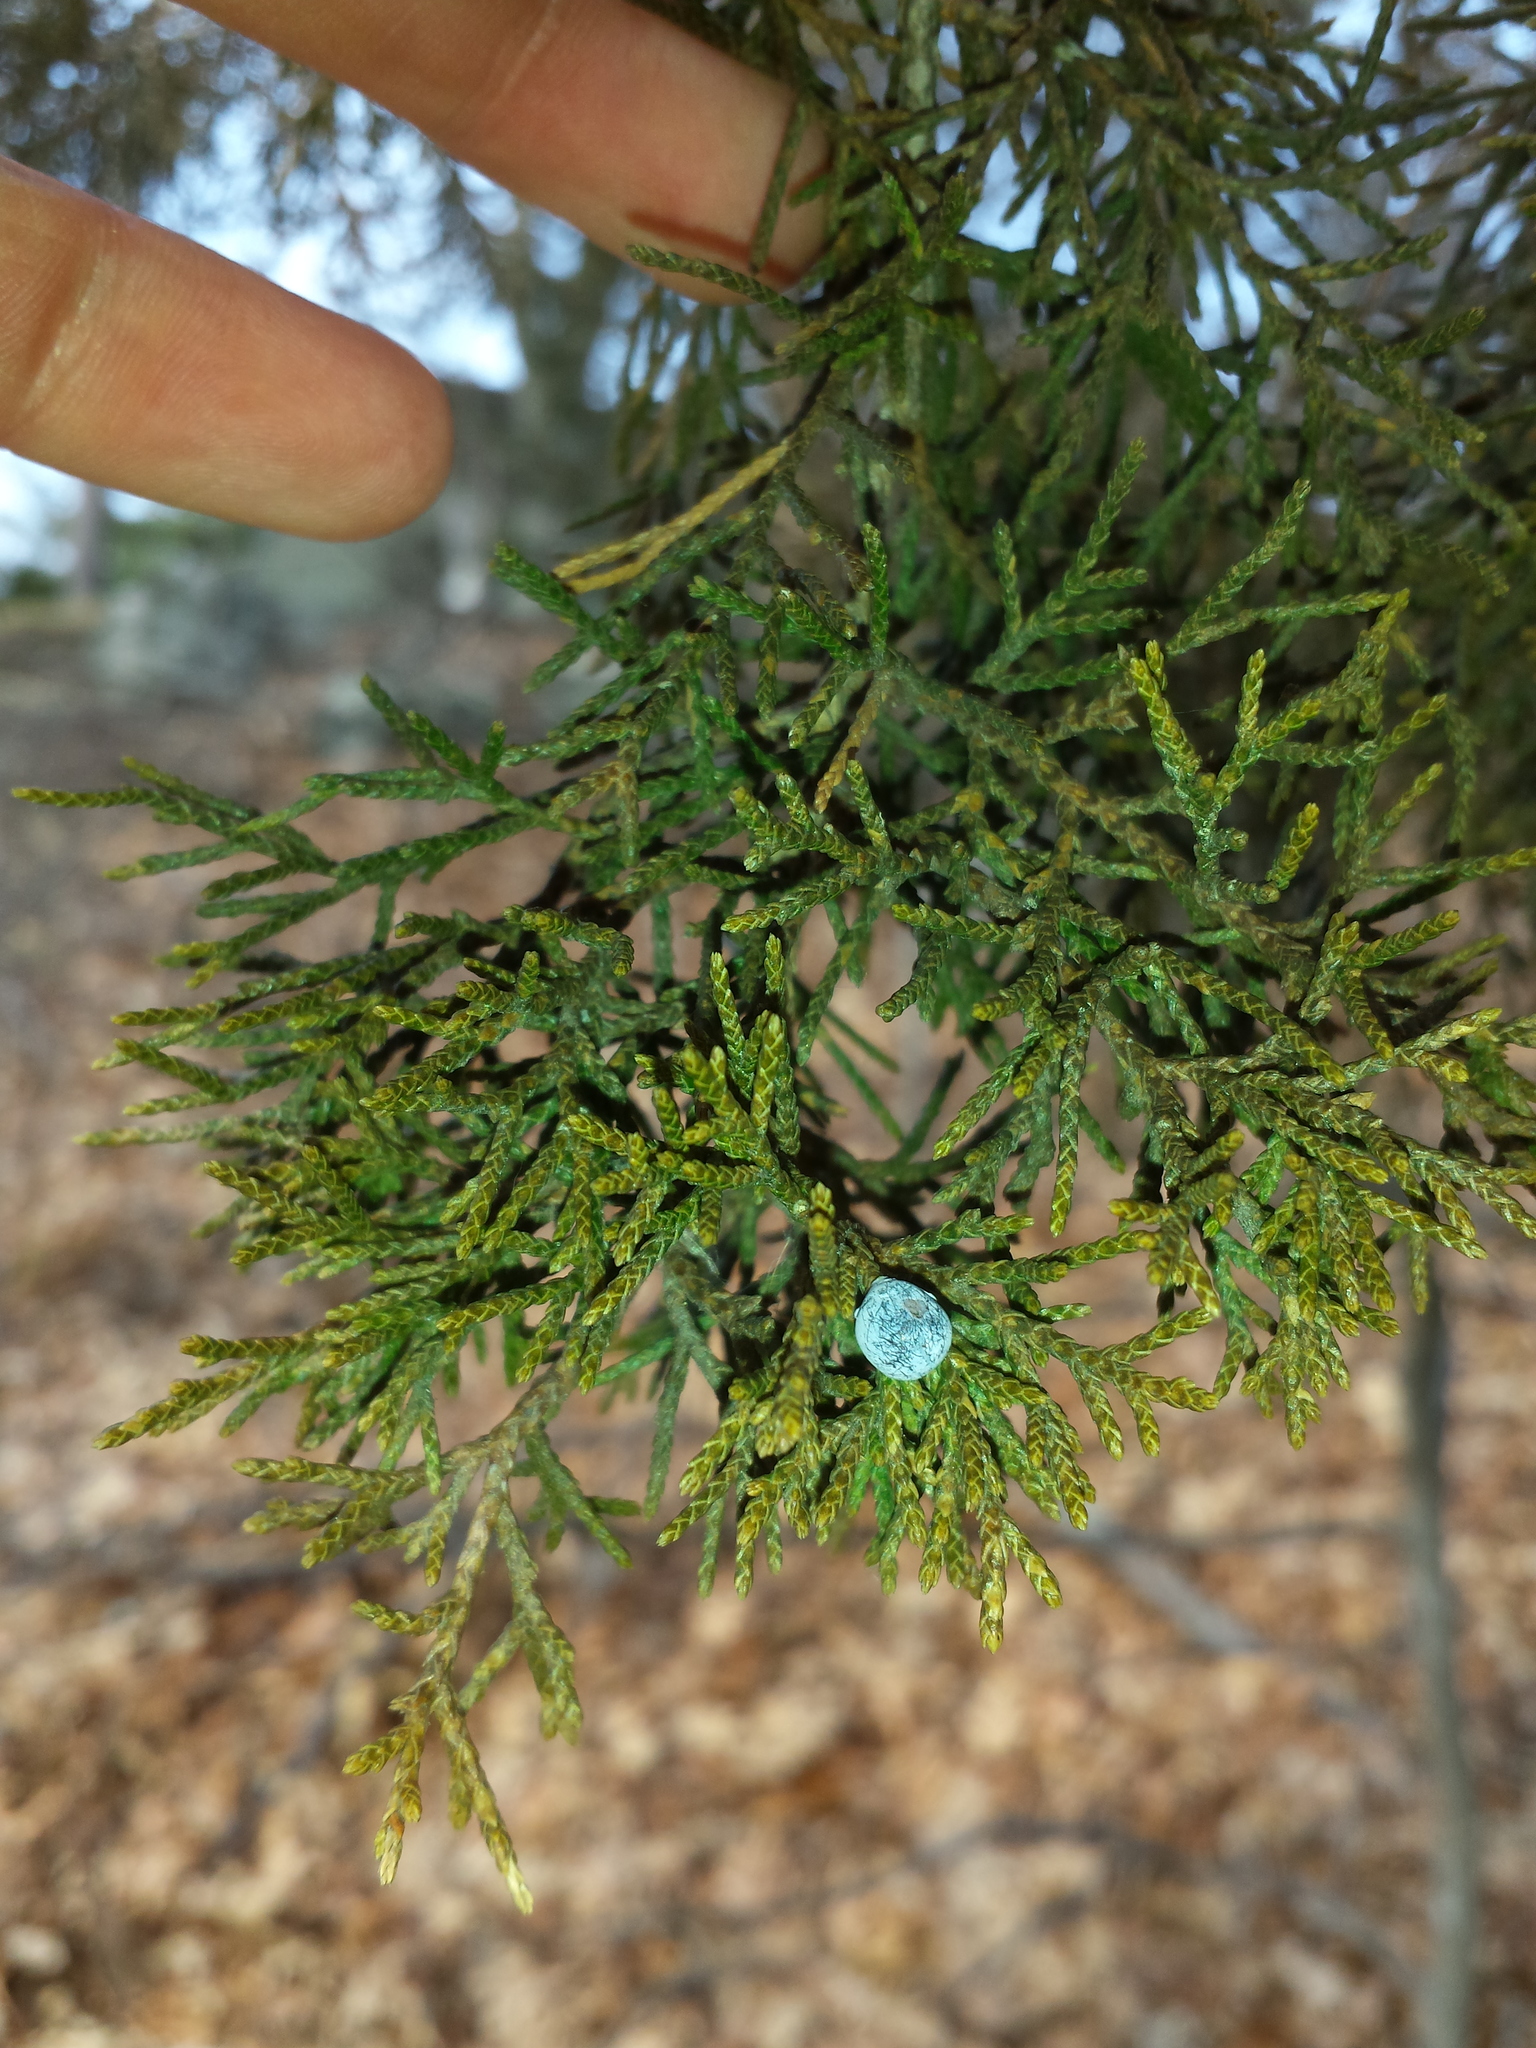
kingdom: Plantae
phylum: Tracheophyta
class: Pinopsida
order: Pinales
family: Cupressaceae
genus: Juniperus
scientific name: Juniperus virginiana
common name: Red juniper
